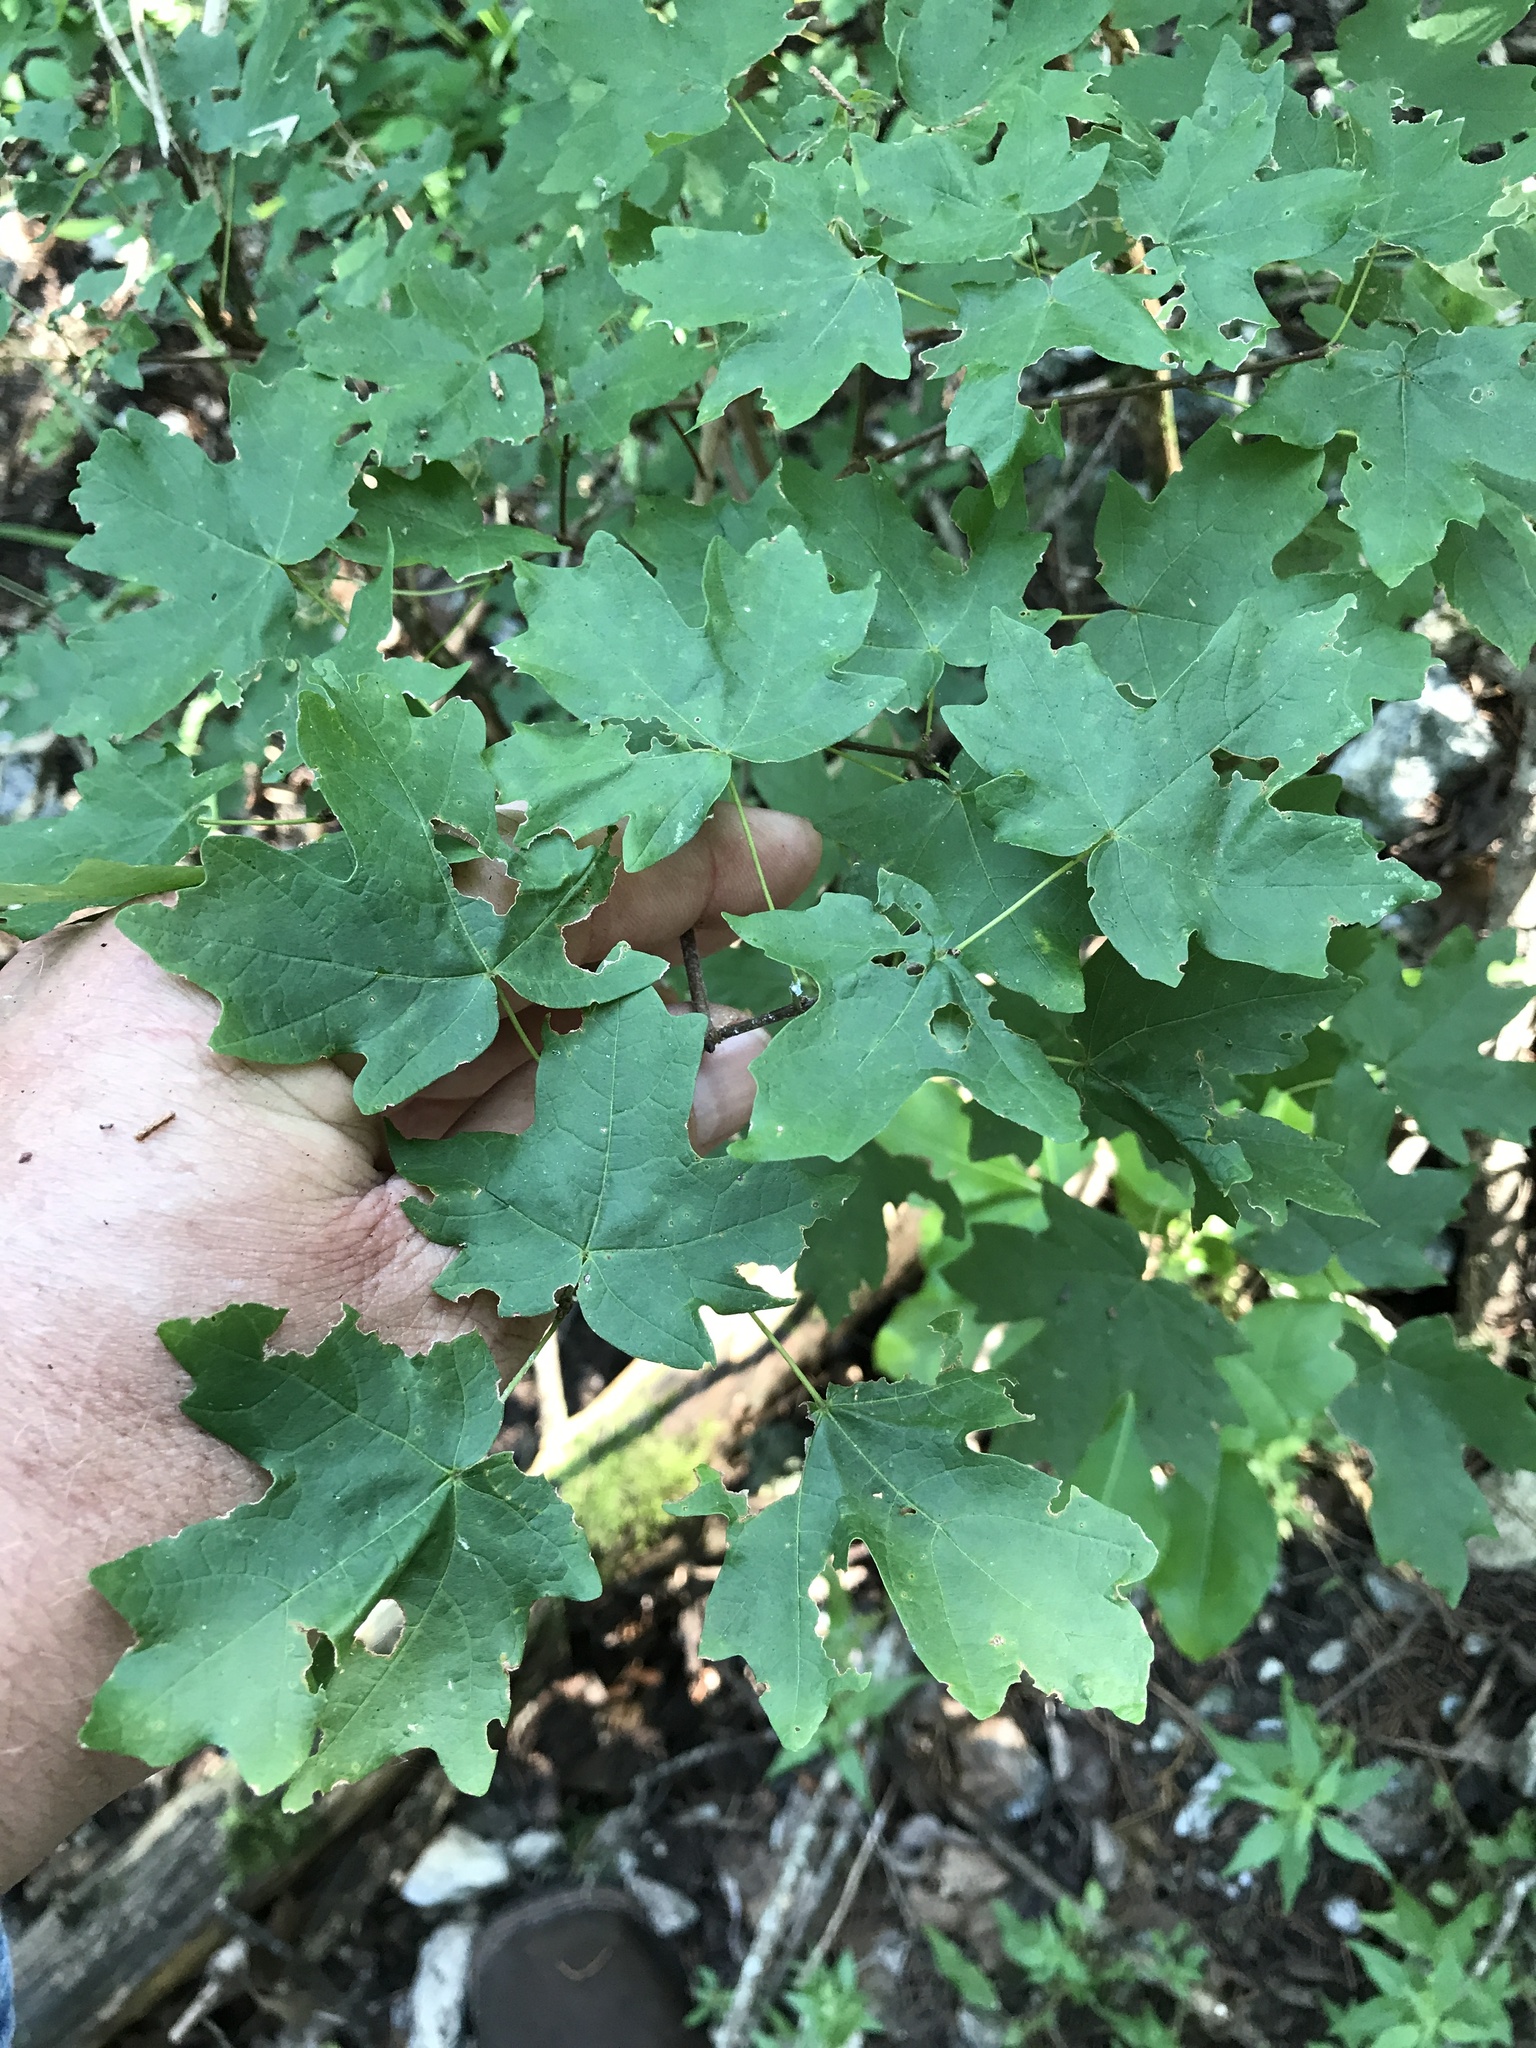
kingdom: Plantae
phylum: Tracheophyta
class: Magnoliopsida
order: Sapindales
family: Sapindaceae
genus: Acer
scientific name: Acer grandidentatum
